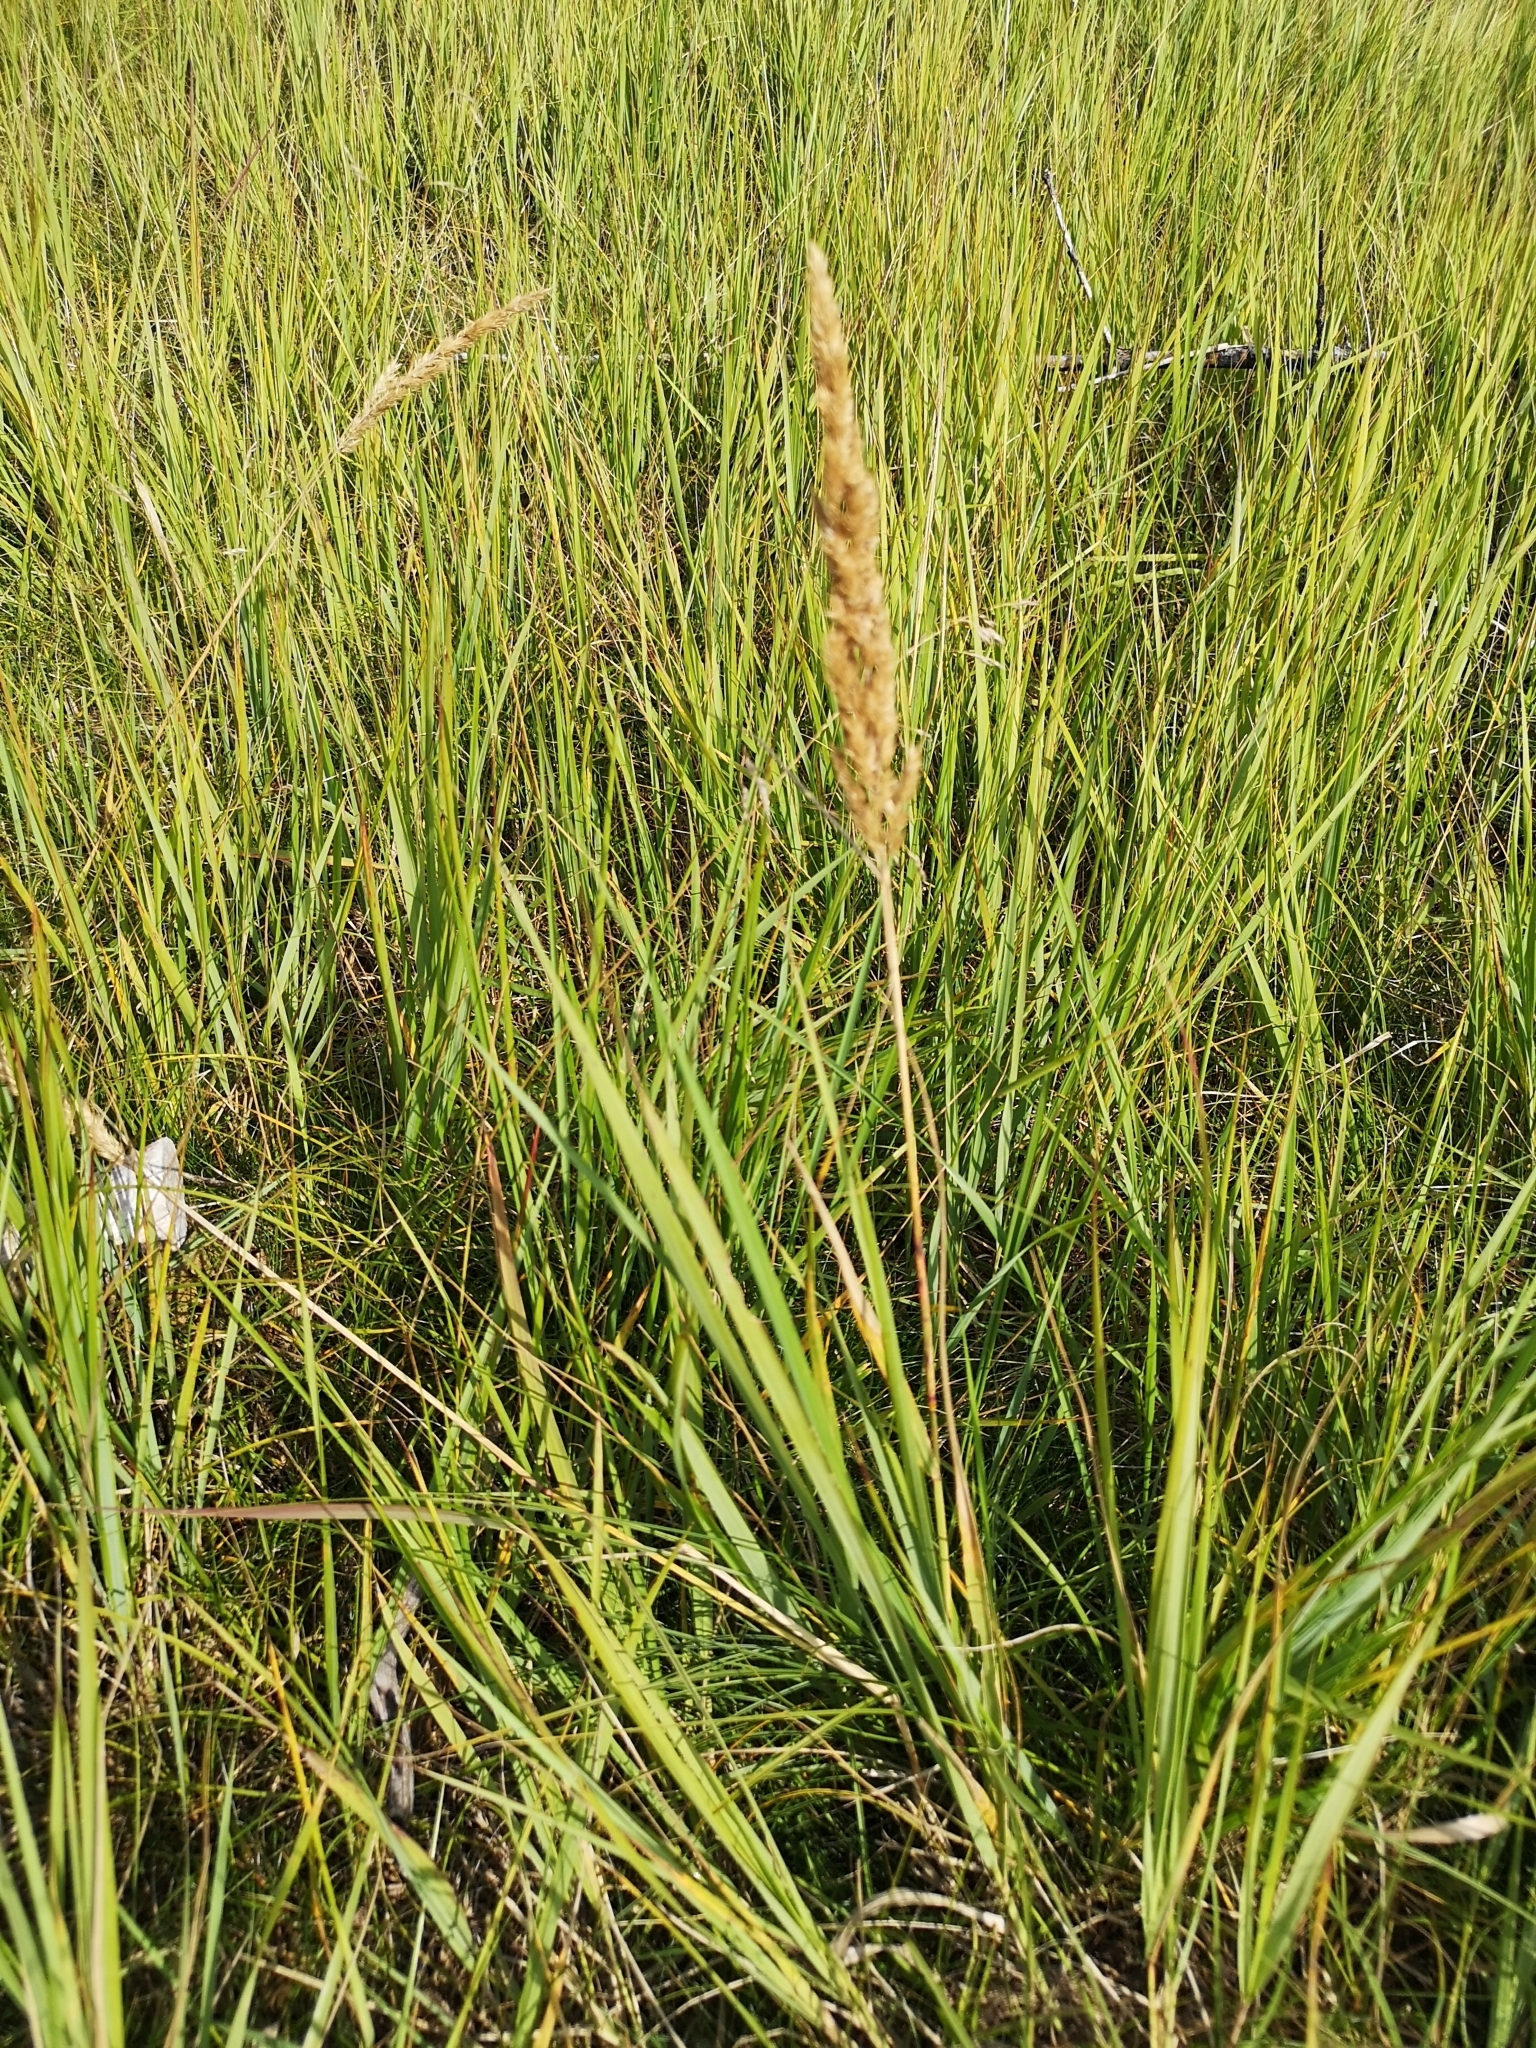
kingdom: Plantae
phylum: Tracheophyta
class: Liliopsida
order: Poales
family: Poaceae
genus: Calamagrostis
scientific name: Calamagrostis epigejos
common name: Wood small-reed
